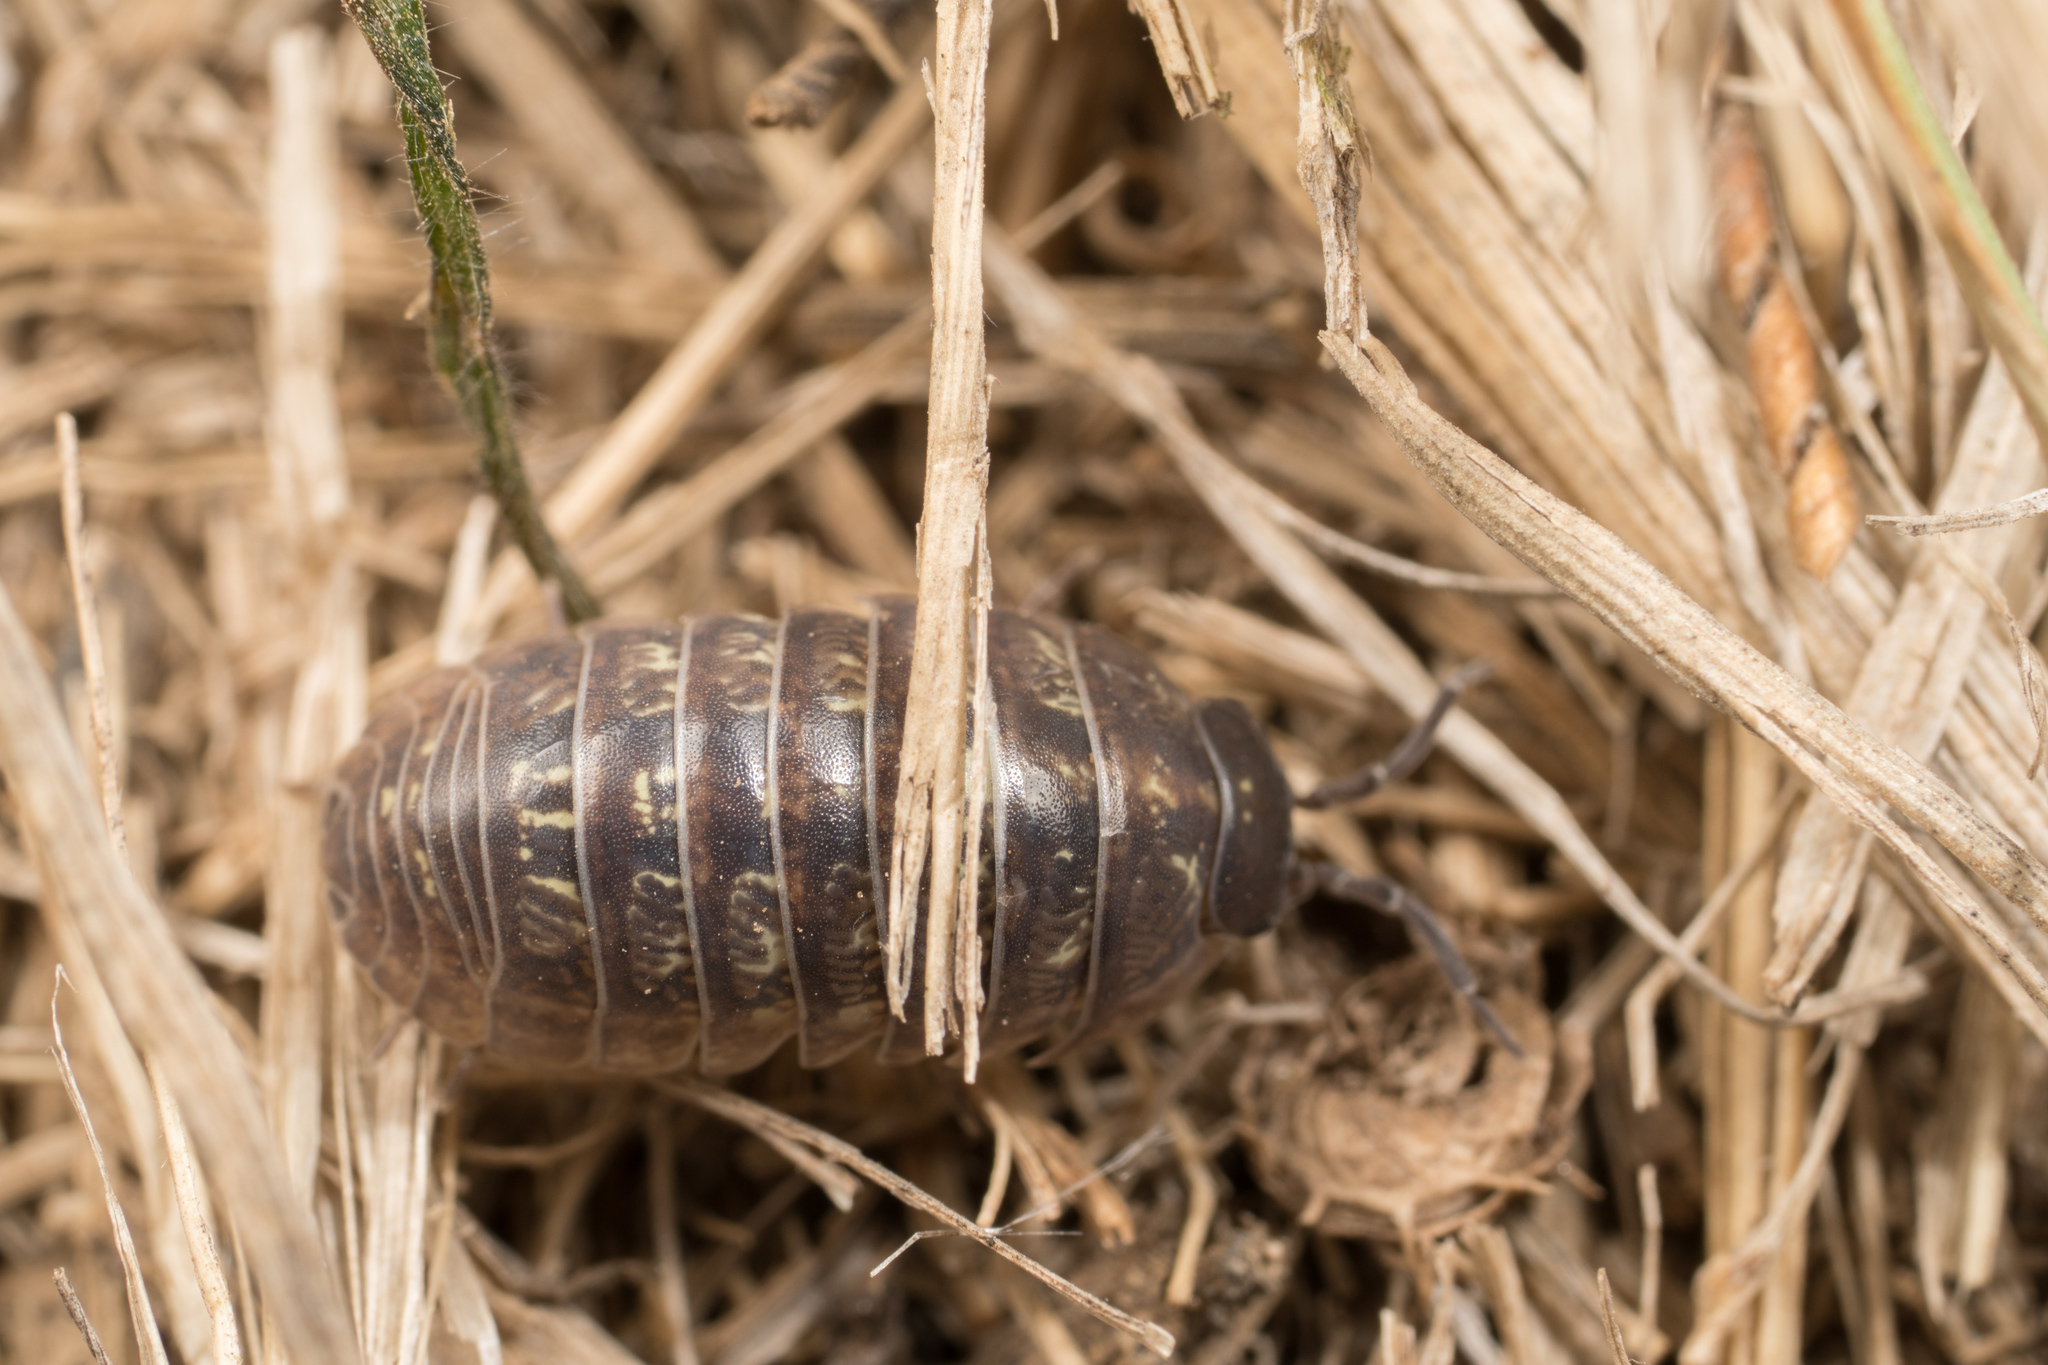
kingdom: Animalia
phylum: Arthropoda
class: Malacostraca
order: Isopoda
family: Armadillidiidae
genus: Armadillidium
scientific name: Armadillidium vulgare
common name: Common pill woodlouse
